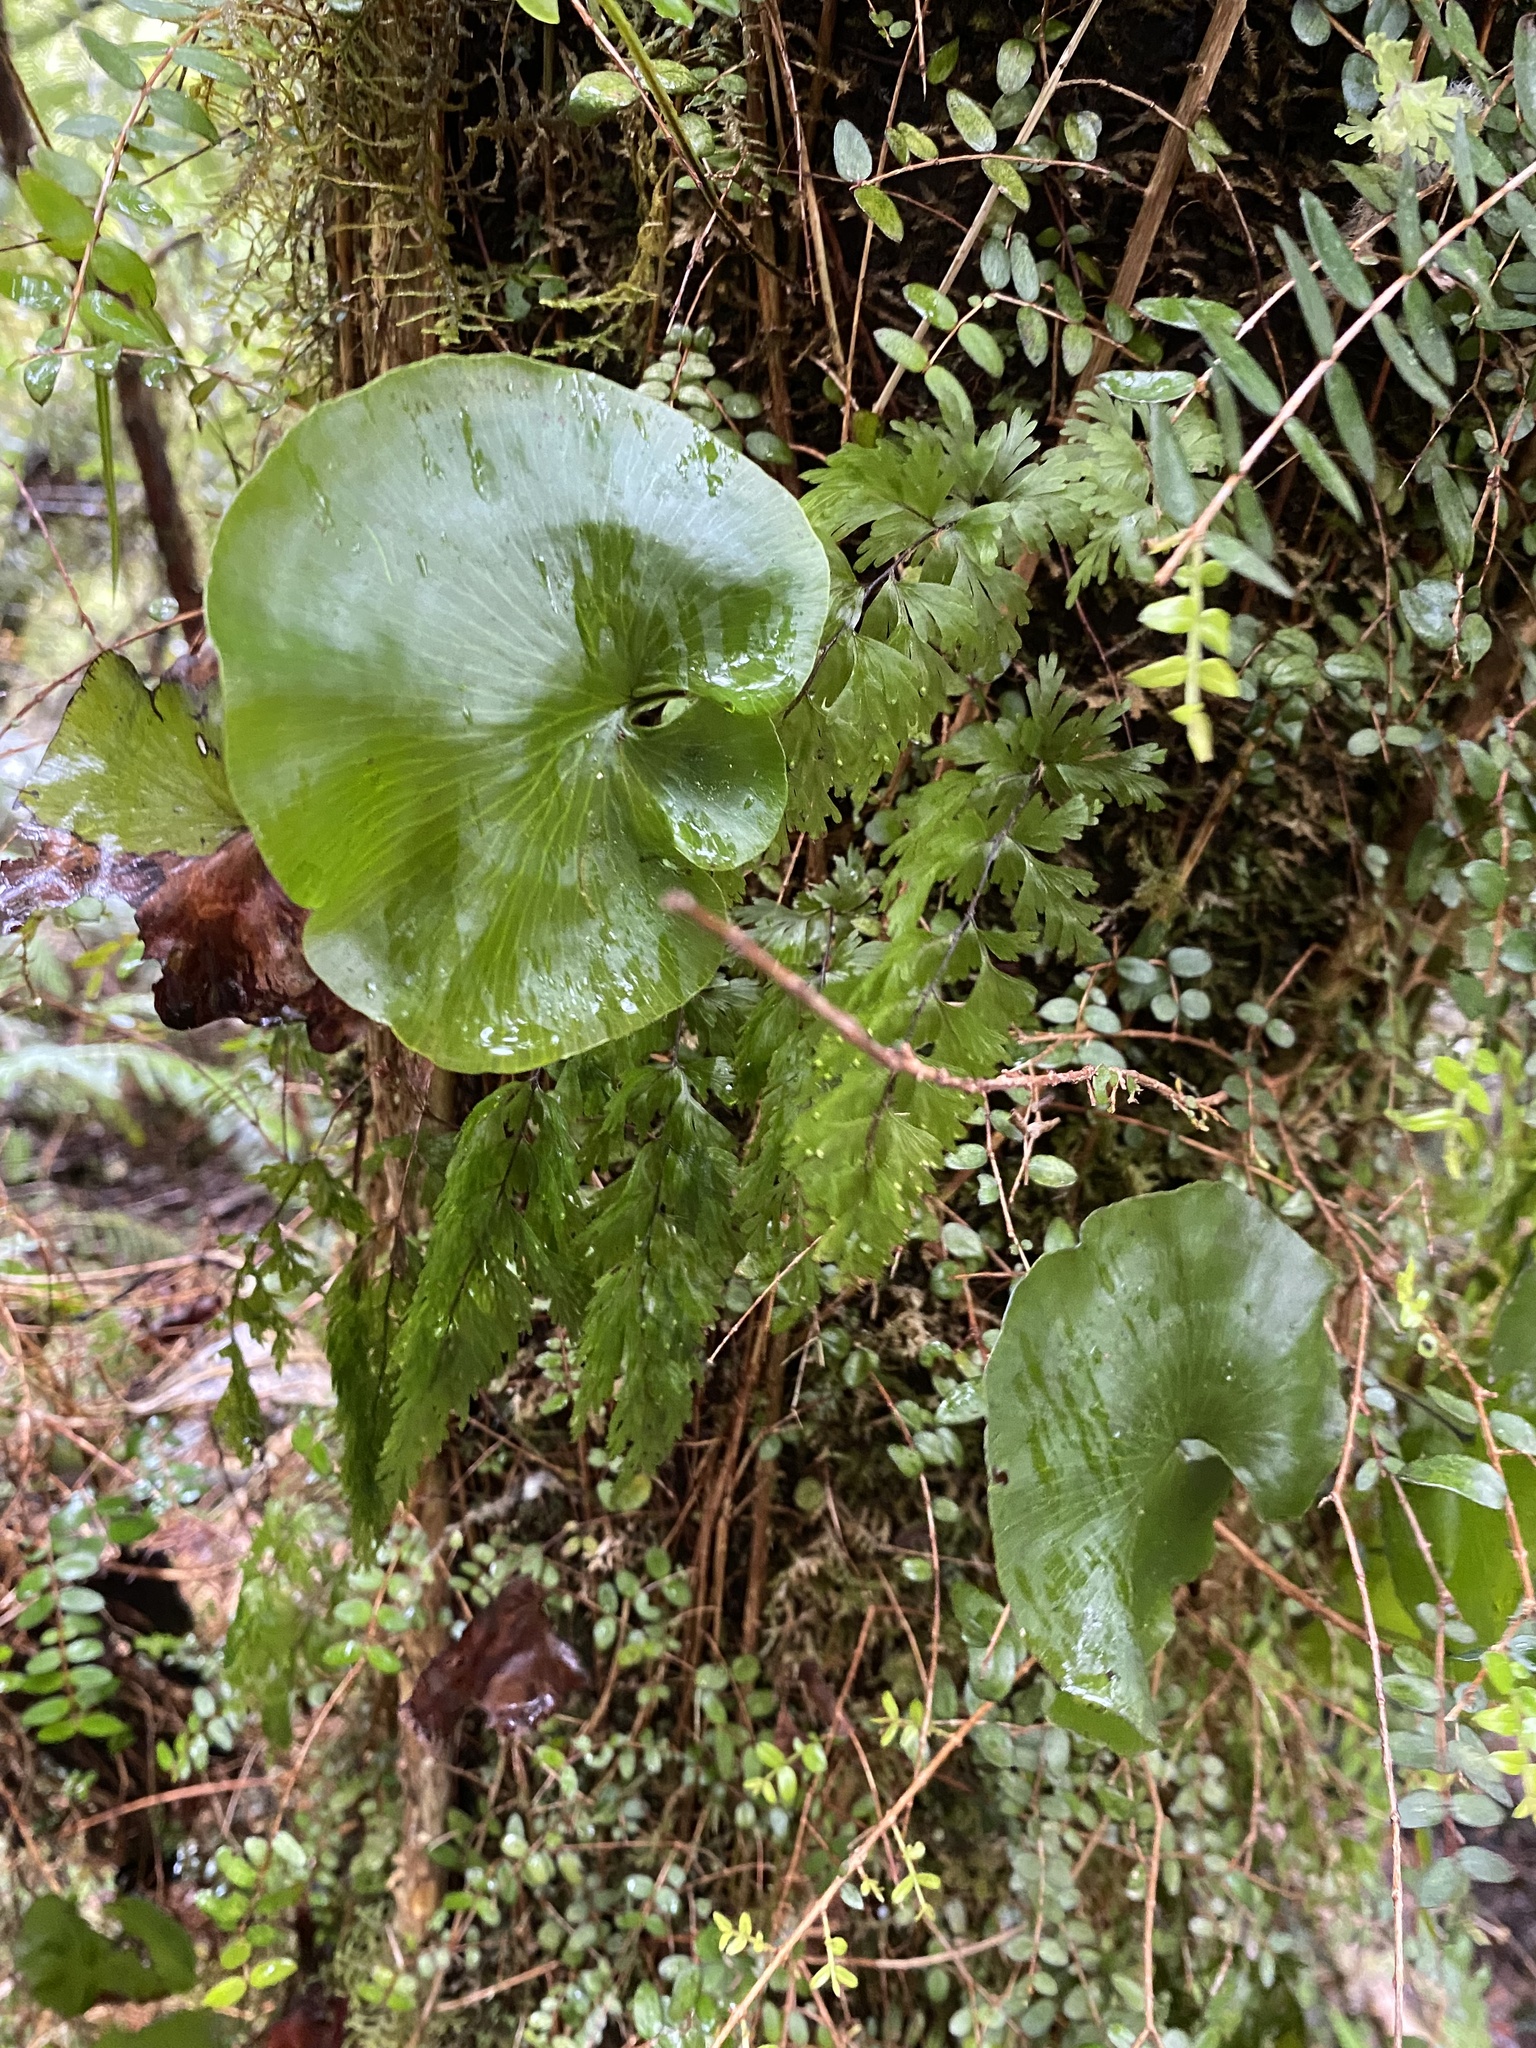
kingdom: Plantae
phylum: Tracheophyta
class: Polypodiopsida
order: Hymenophyllales
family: Hymenophyllaceae
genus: Hymenophyllum
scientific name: Hymenophyllum nephrophyllum
